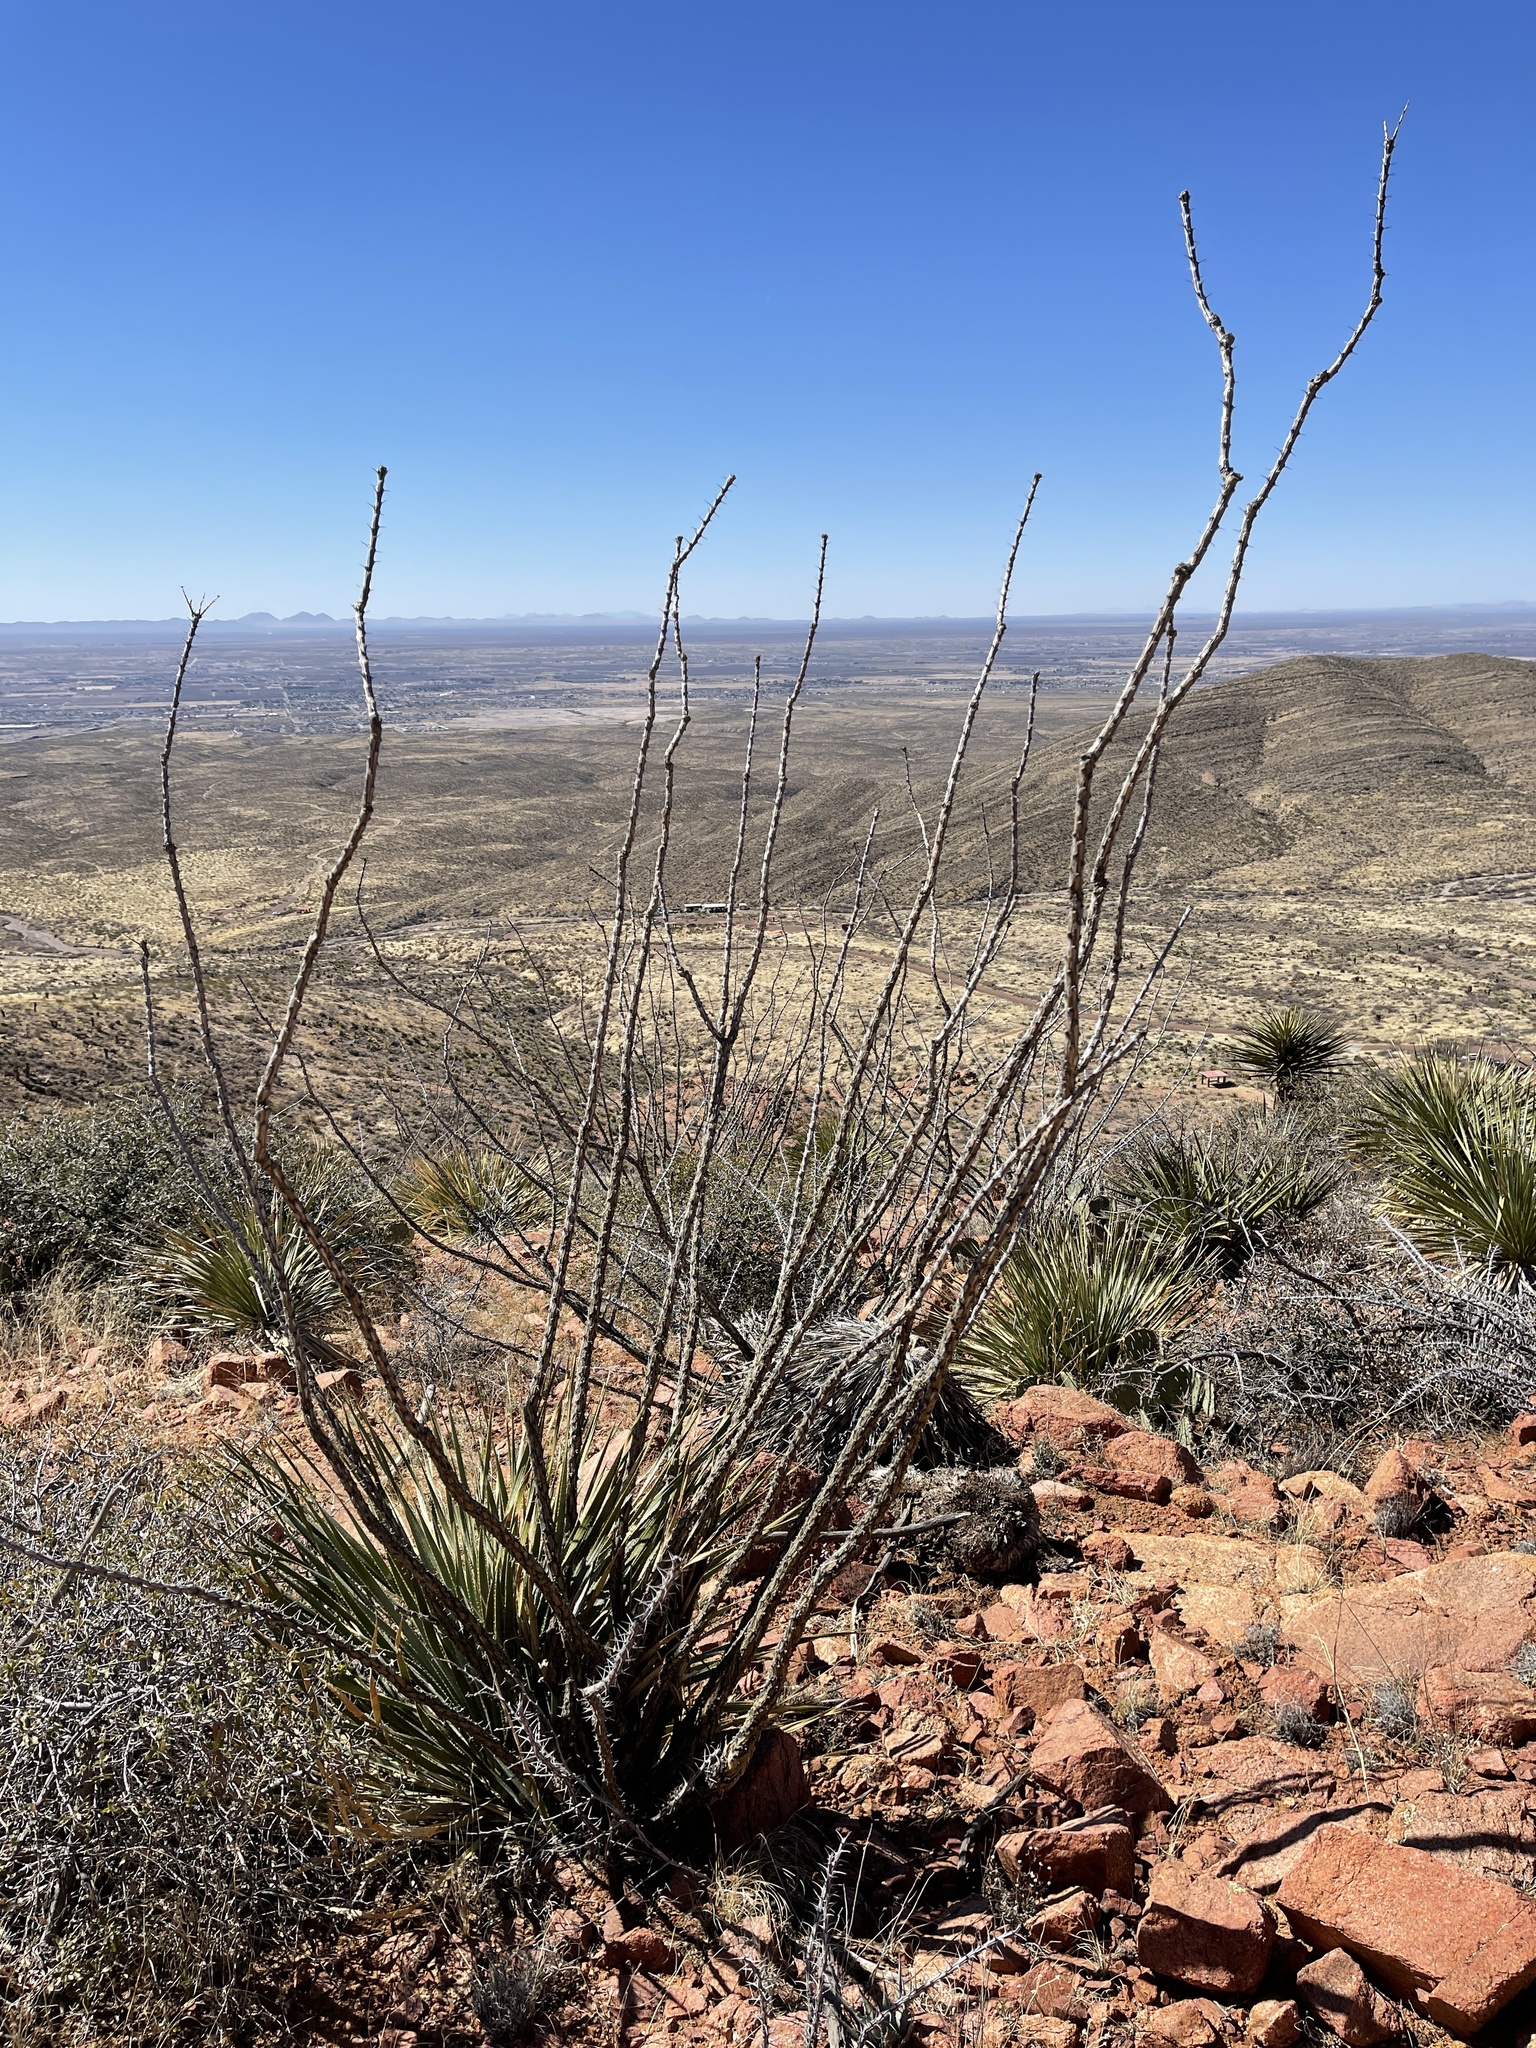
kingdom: Plantae
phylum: Tracheophyta
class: Magnoliopsida
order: Ericales
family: Fouquieriaceae
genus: Fouquieria
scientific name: Fouquieria splendens
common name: Vine-cactus
